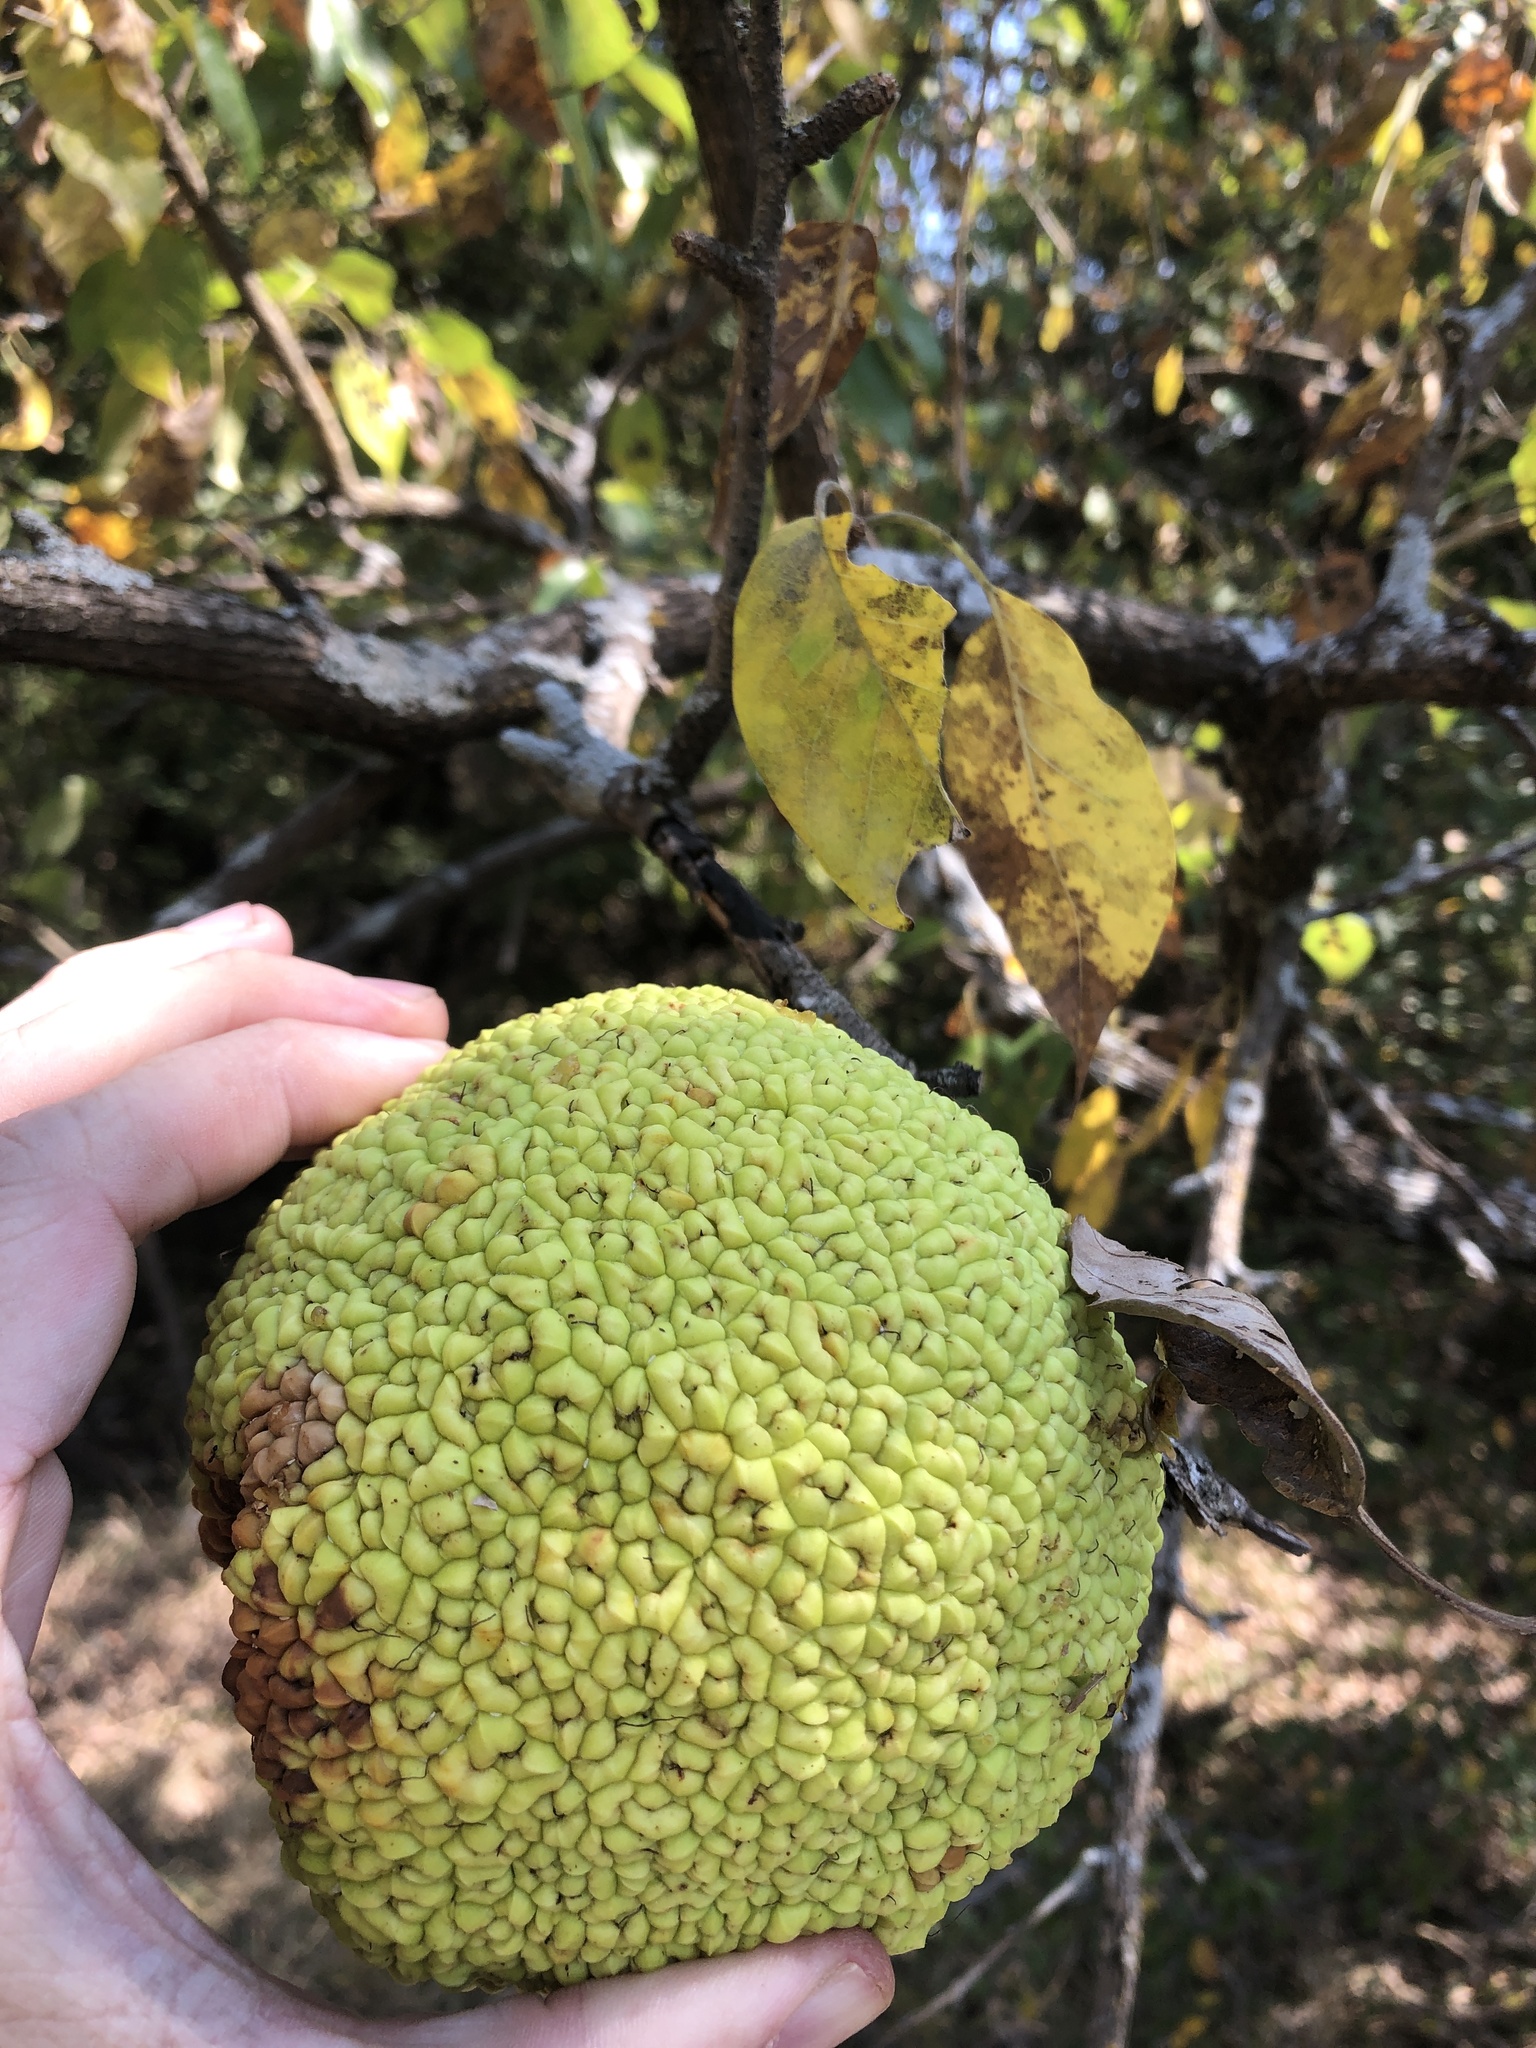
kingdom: Plantae
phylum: Tracheophyta
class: Magnoliopsida
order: Rosales
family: Moraceae
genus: Maclura
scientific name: Maclura pomifera
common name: Osage-orange
